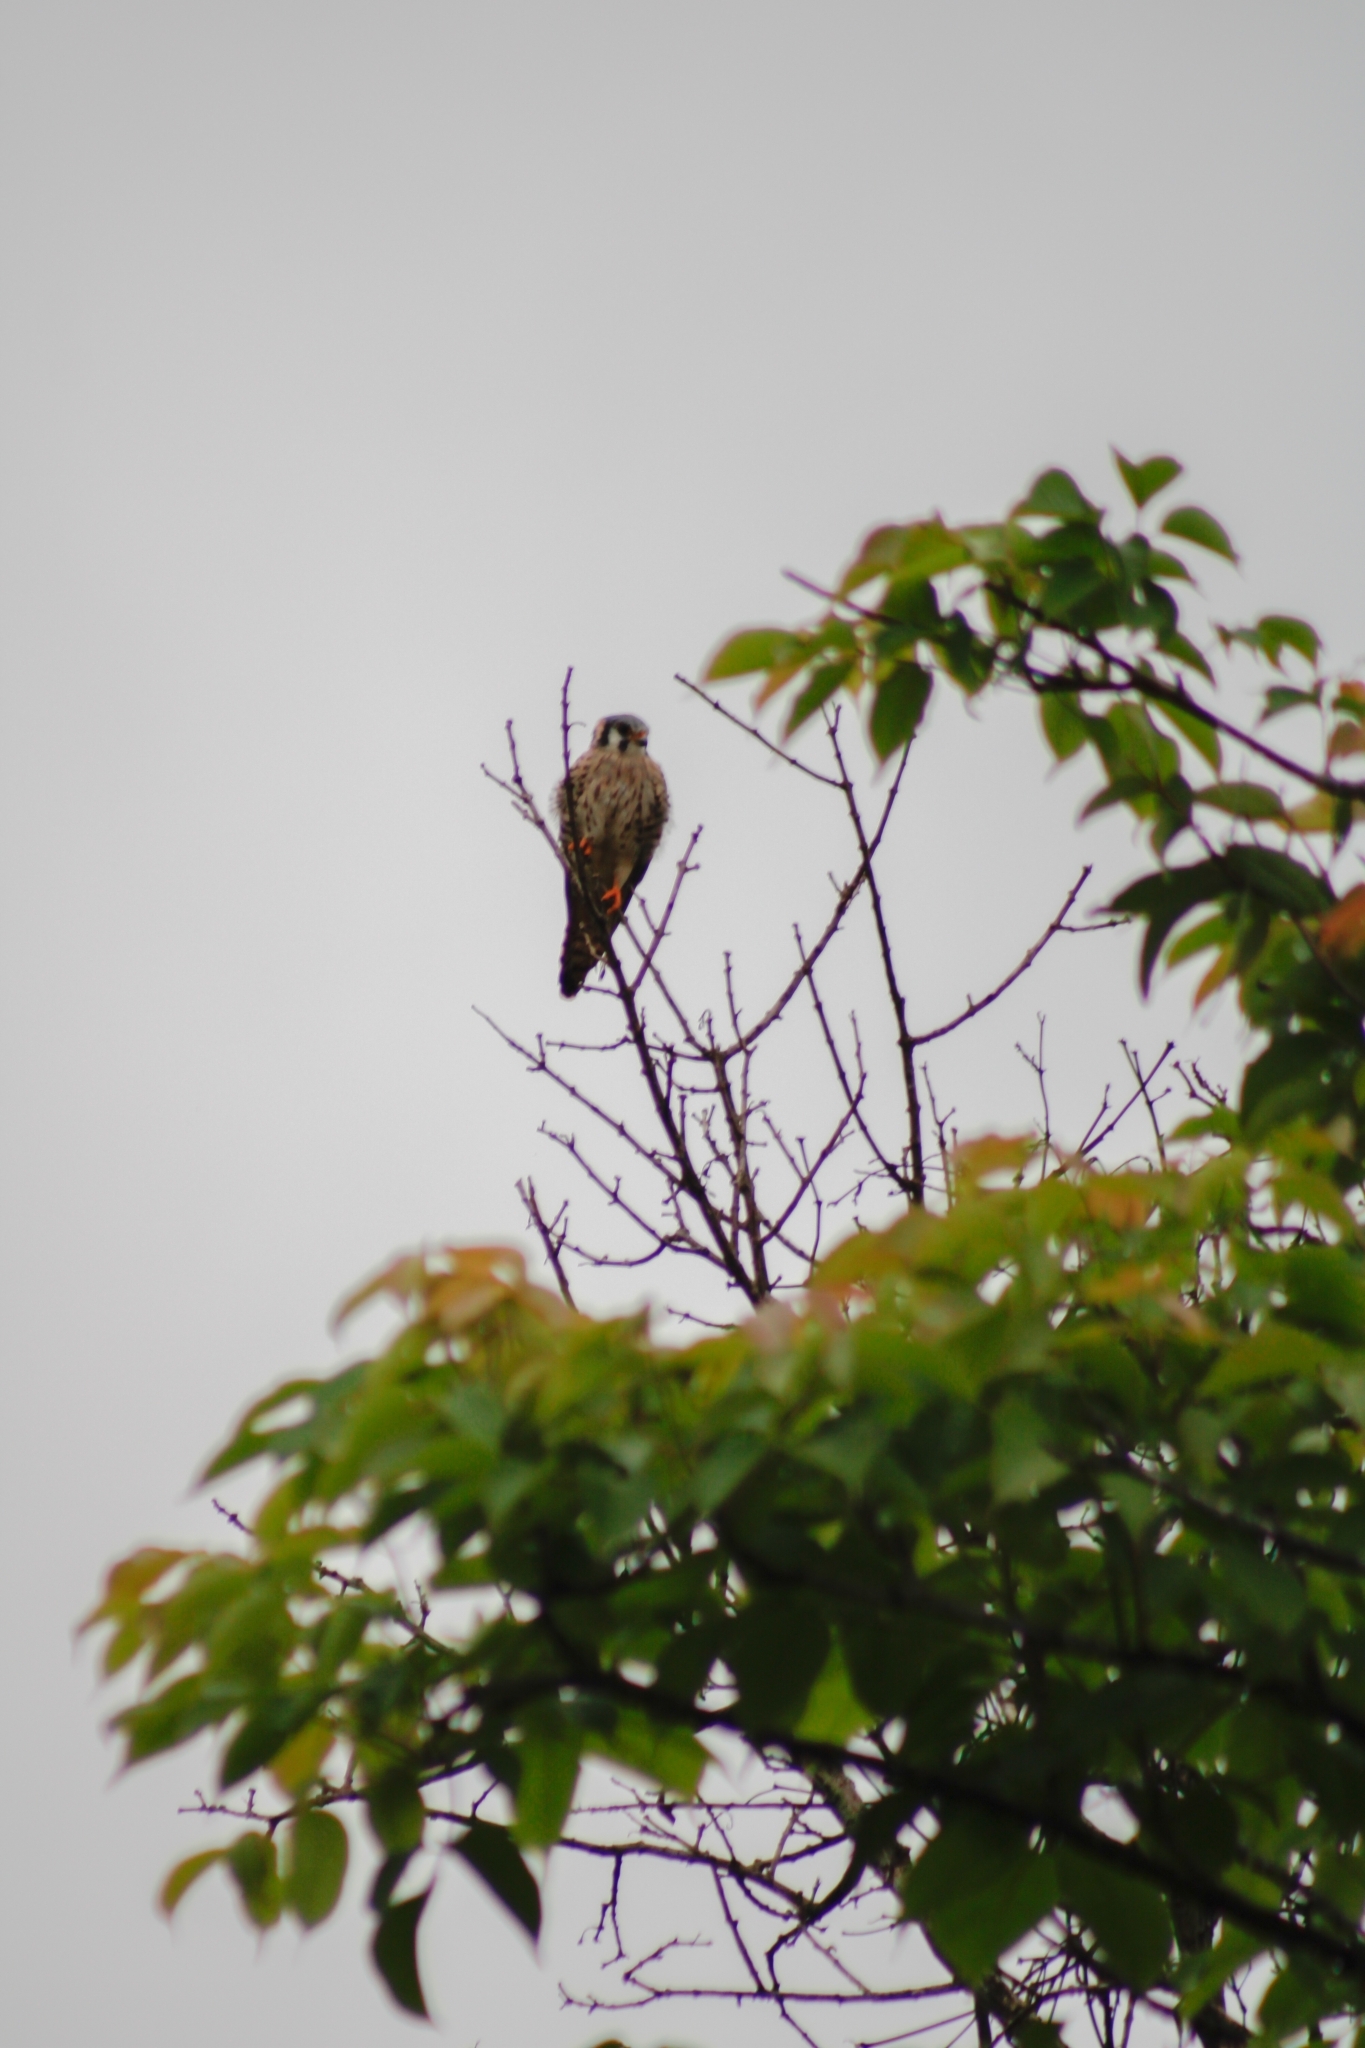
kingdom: Animalia
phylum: Chordata
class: Aves
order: Falconiformes
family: Falconidae
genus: Falco
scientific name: Falco sparverius
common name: American kestrel
